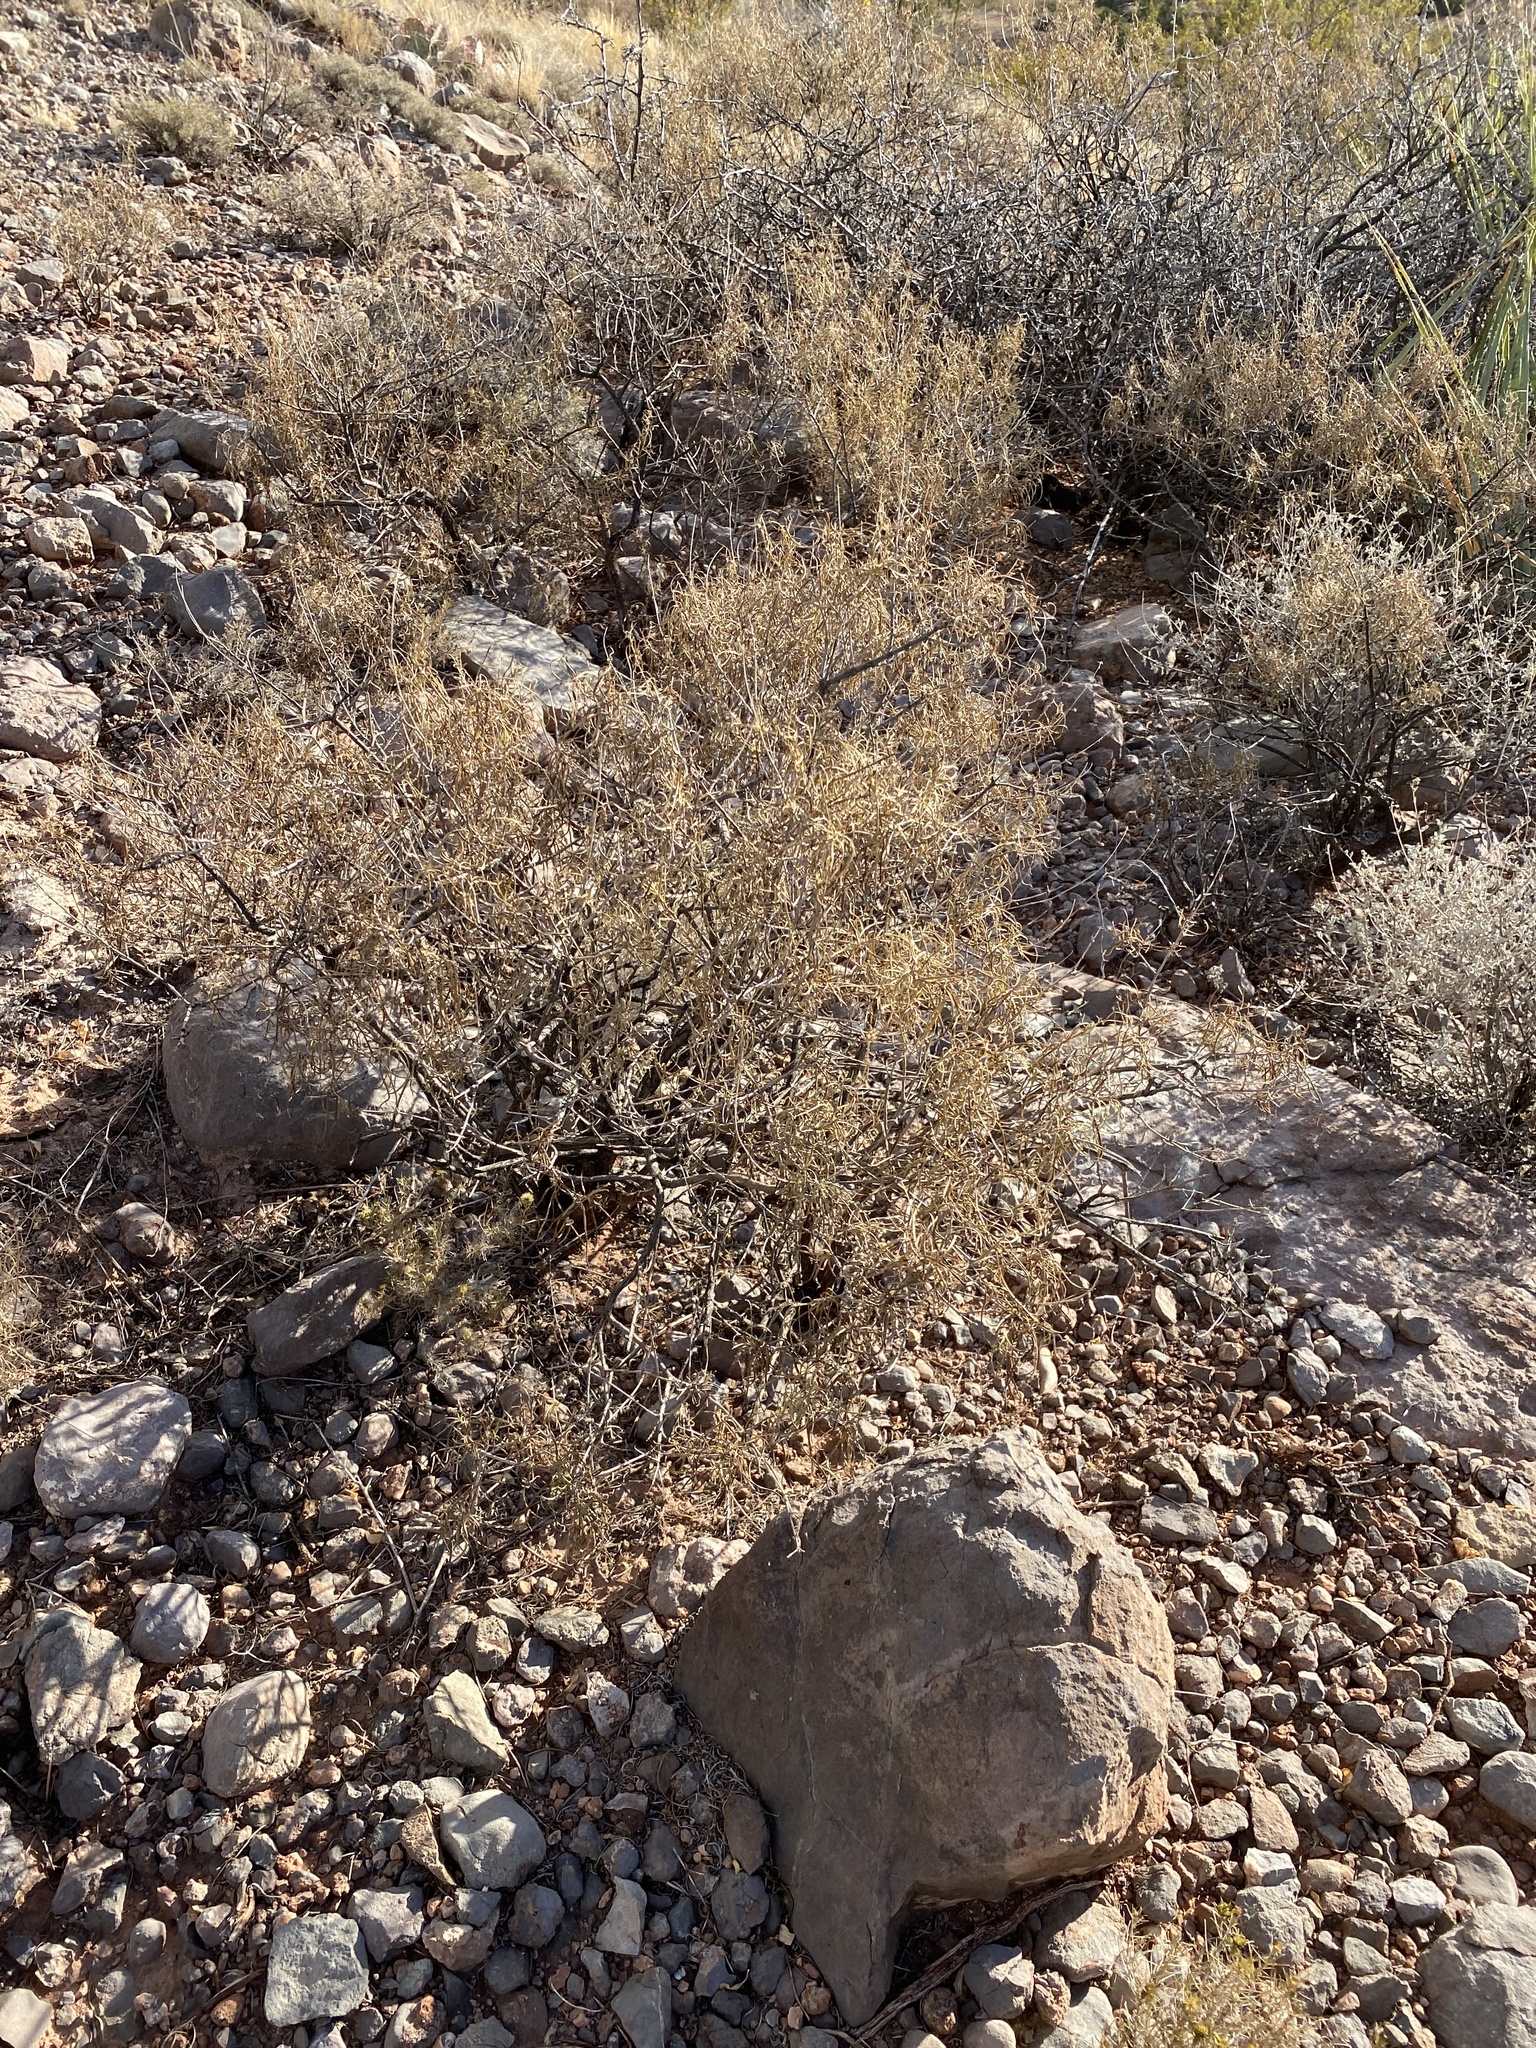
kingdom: Plantae
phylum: Tracheophyta
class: Magnoliopsida
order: Asterales
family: Asteraceae
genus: Sidneya
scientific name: Sidneya tenuifolia
